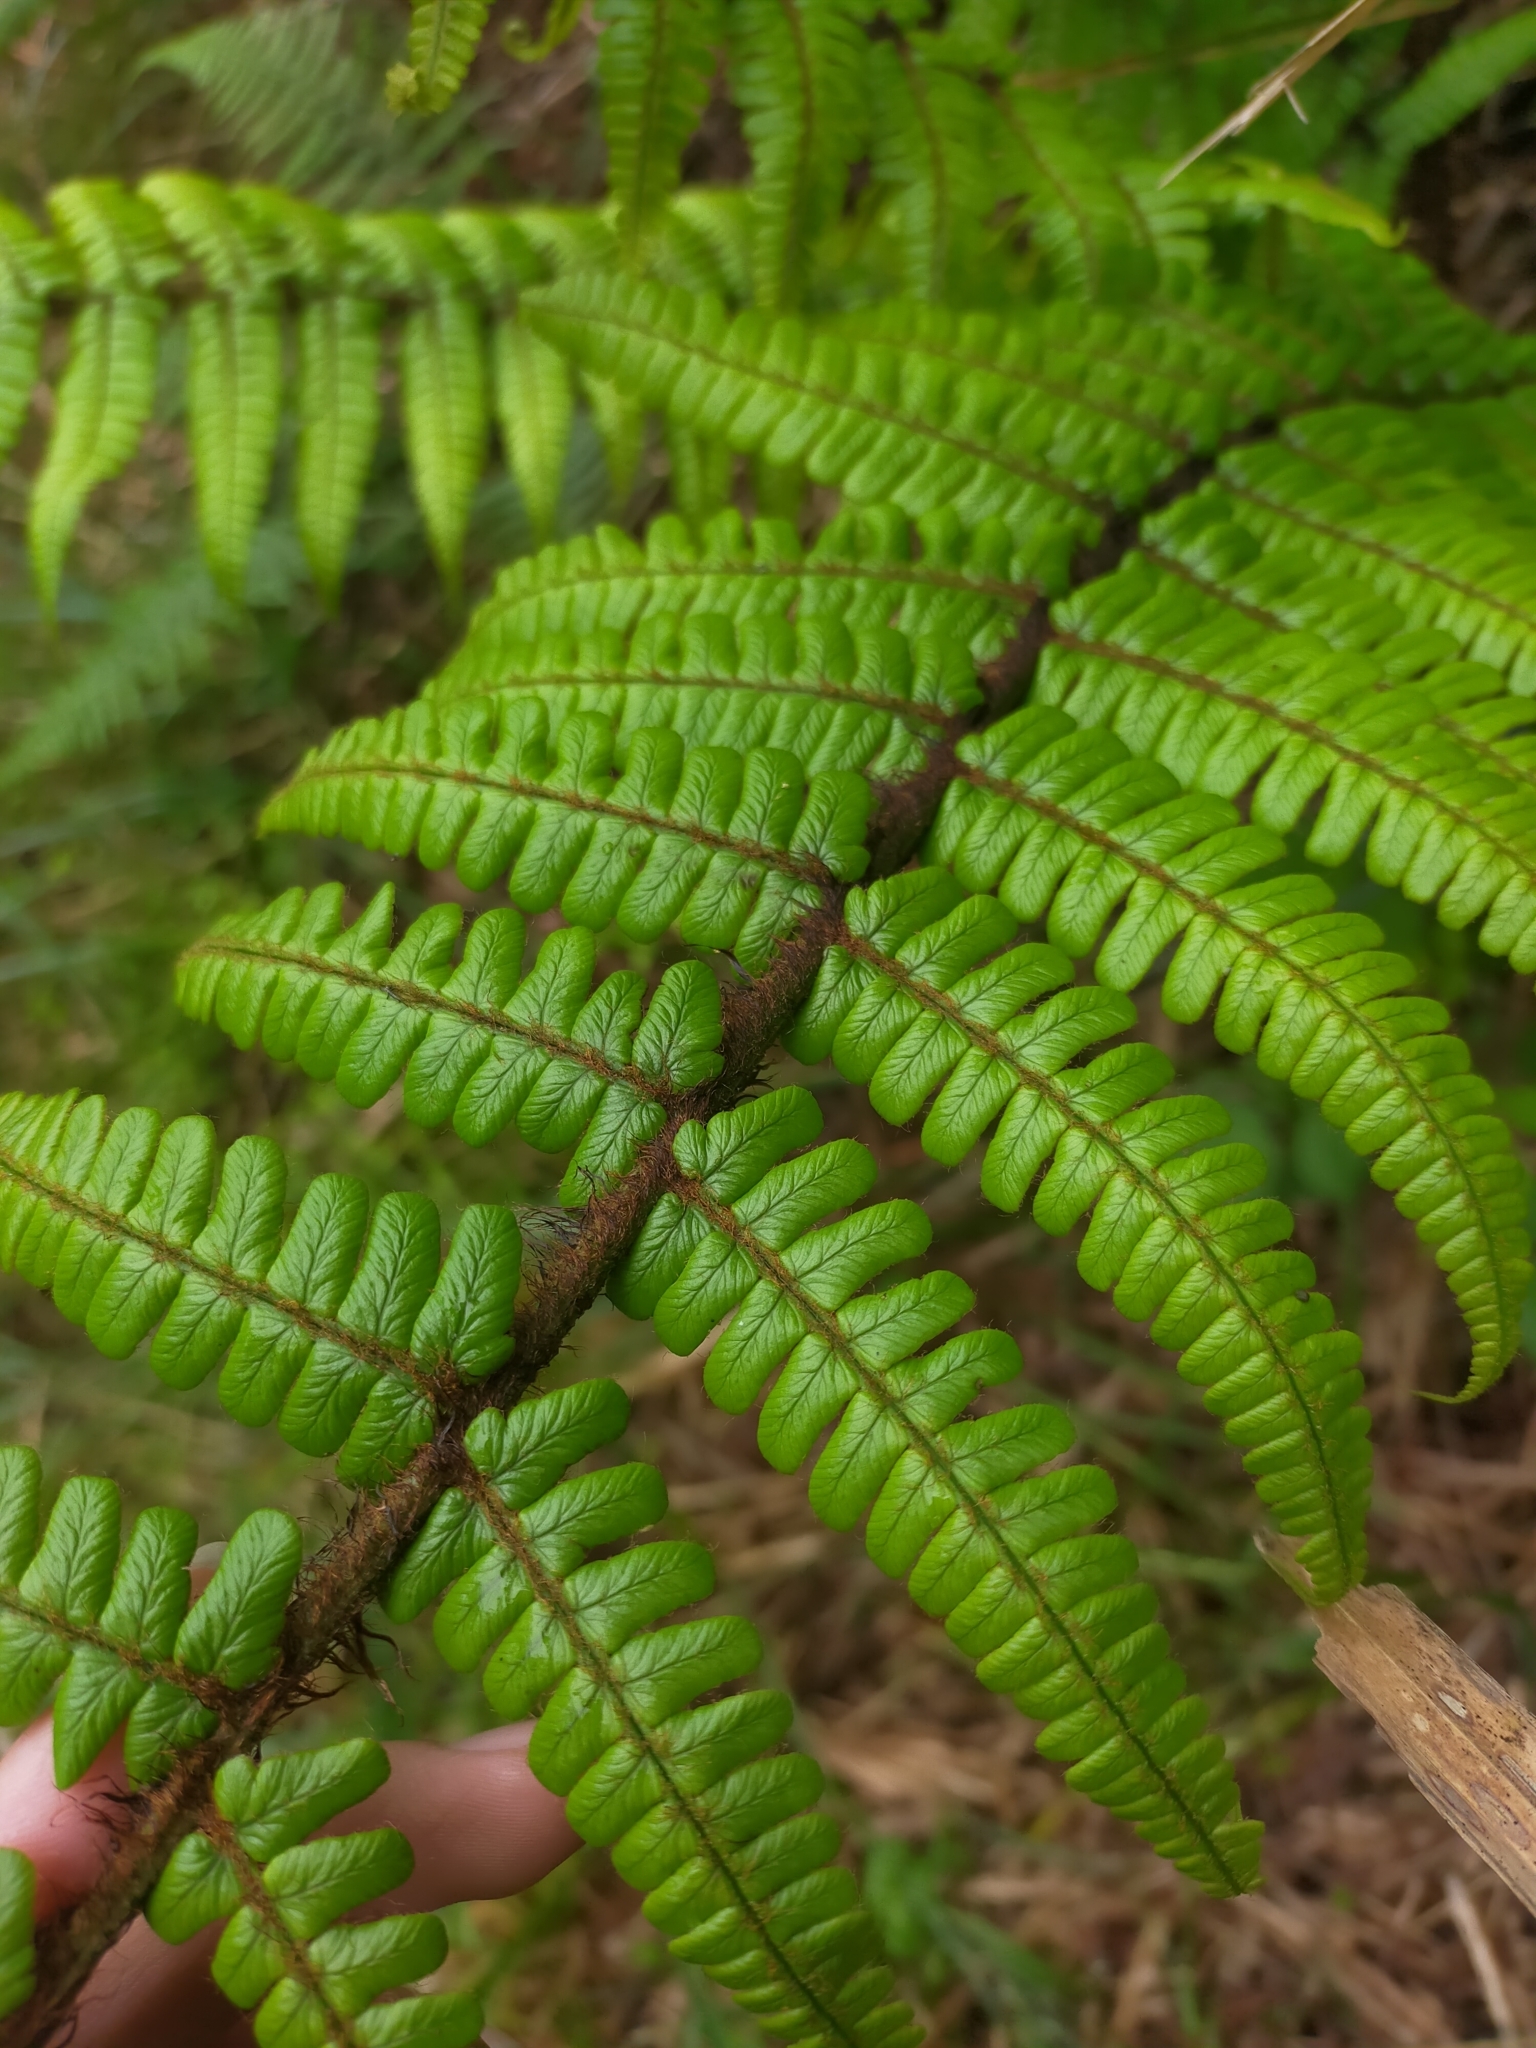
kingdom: Plantae
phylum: Tracheophyta
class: Polypodiopsida
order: Polypodiales
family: Dryopteridaceae
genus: Dryopteris
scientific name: Dryopteris wallichiana
